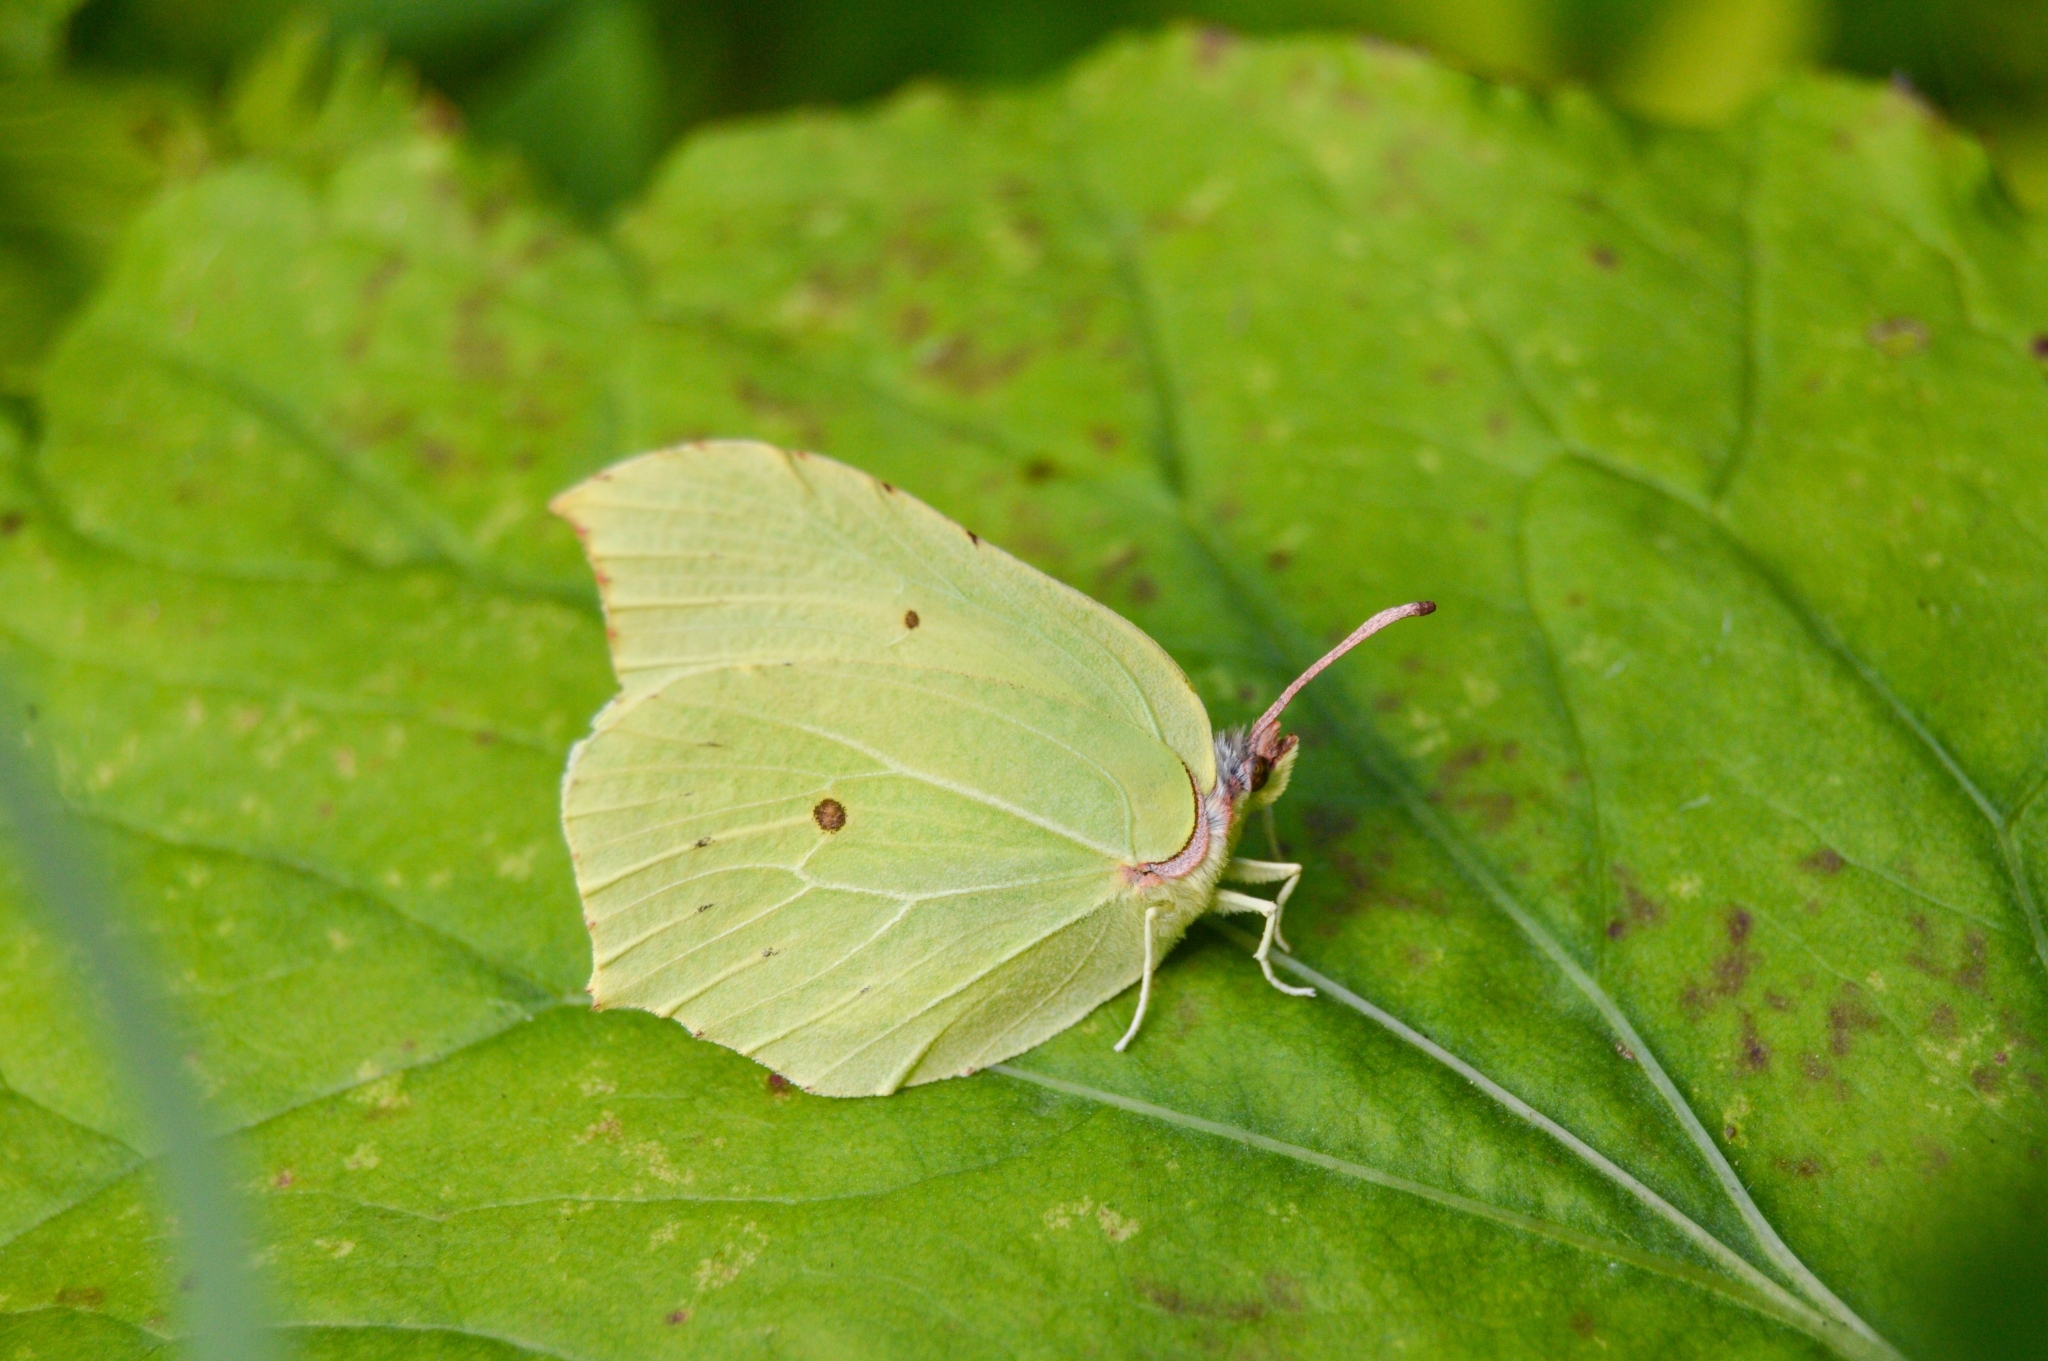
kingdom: Animalia
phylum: Arthropoda
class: Insecta
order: Lepidoptera
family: Pieridae
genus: Gonepteryx
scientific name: Gonepteryx rhamni
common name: Brimstone
